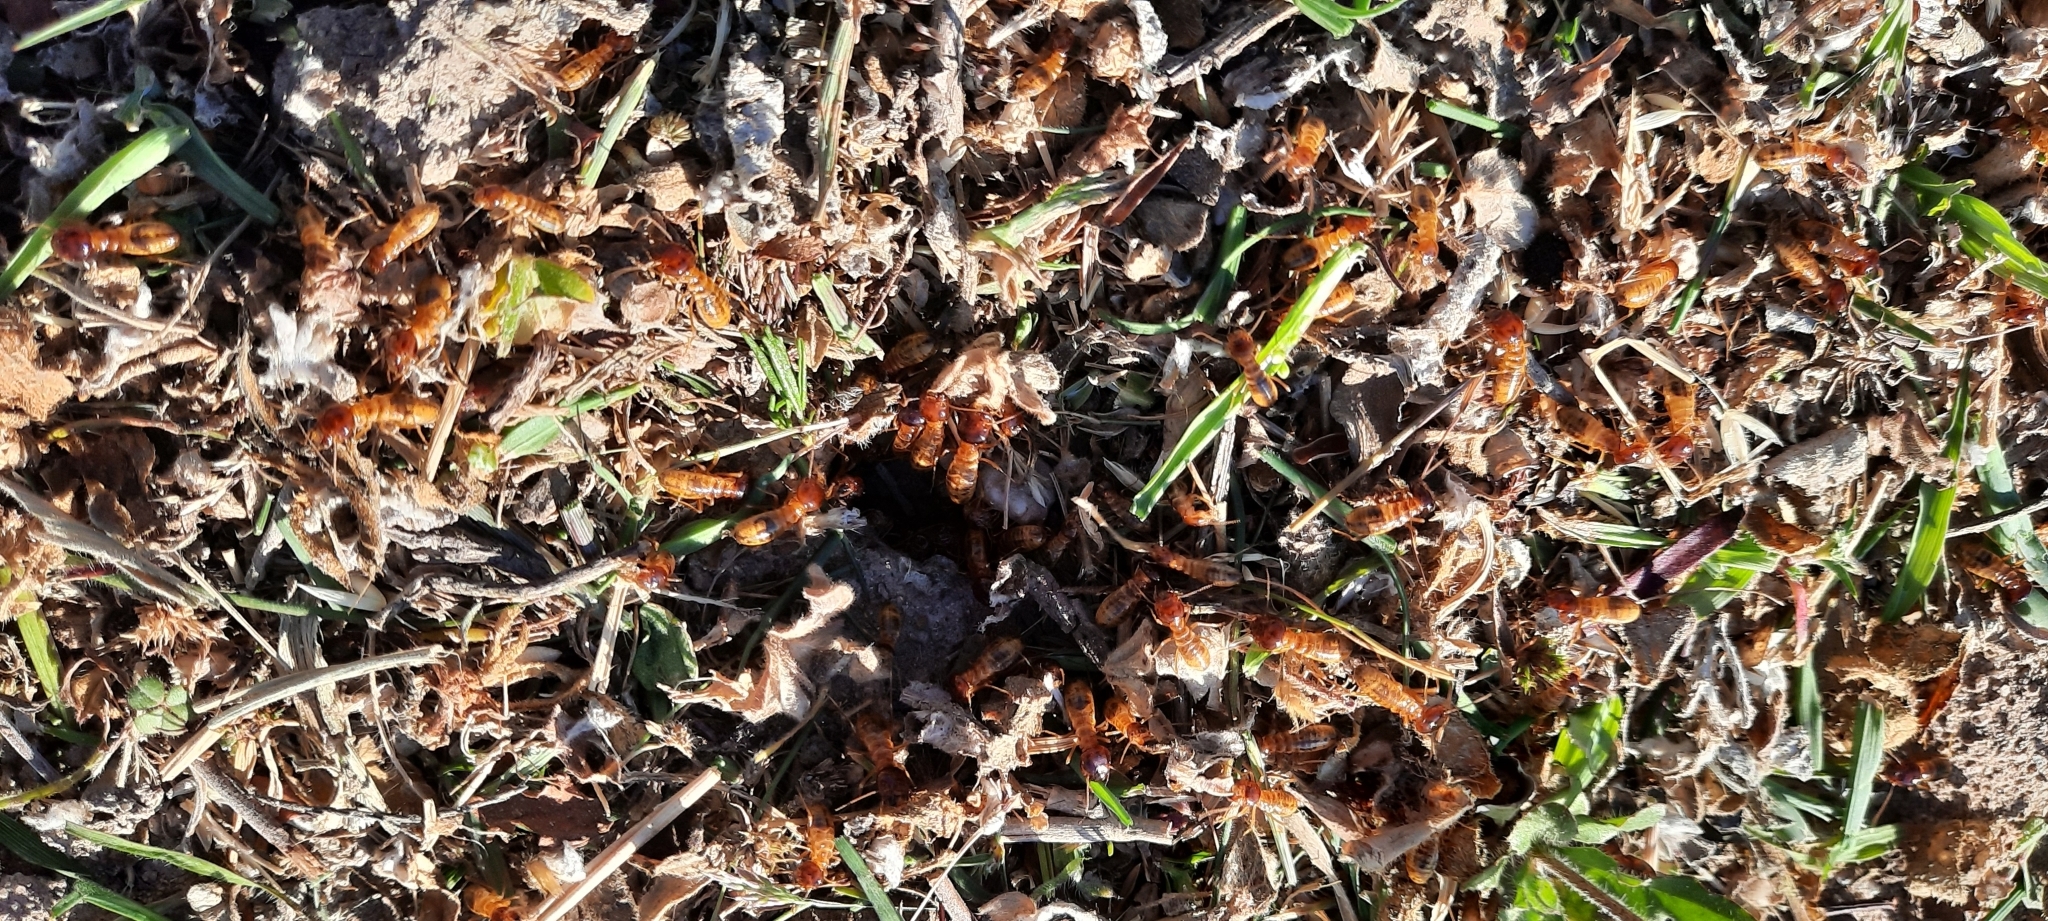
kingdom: Animalia
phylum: Arthropoda
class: Insecta
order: Blattodea
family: Hodotermitidae
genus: Microhodotermes
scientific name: Microhodotermes viator
